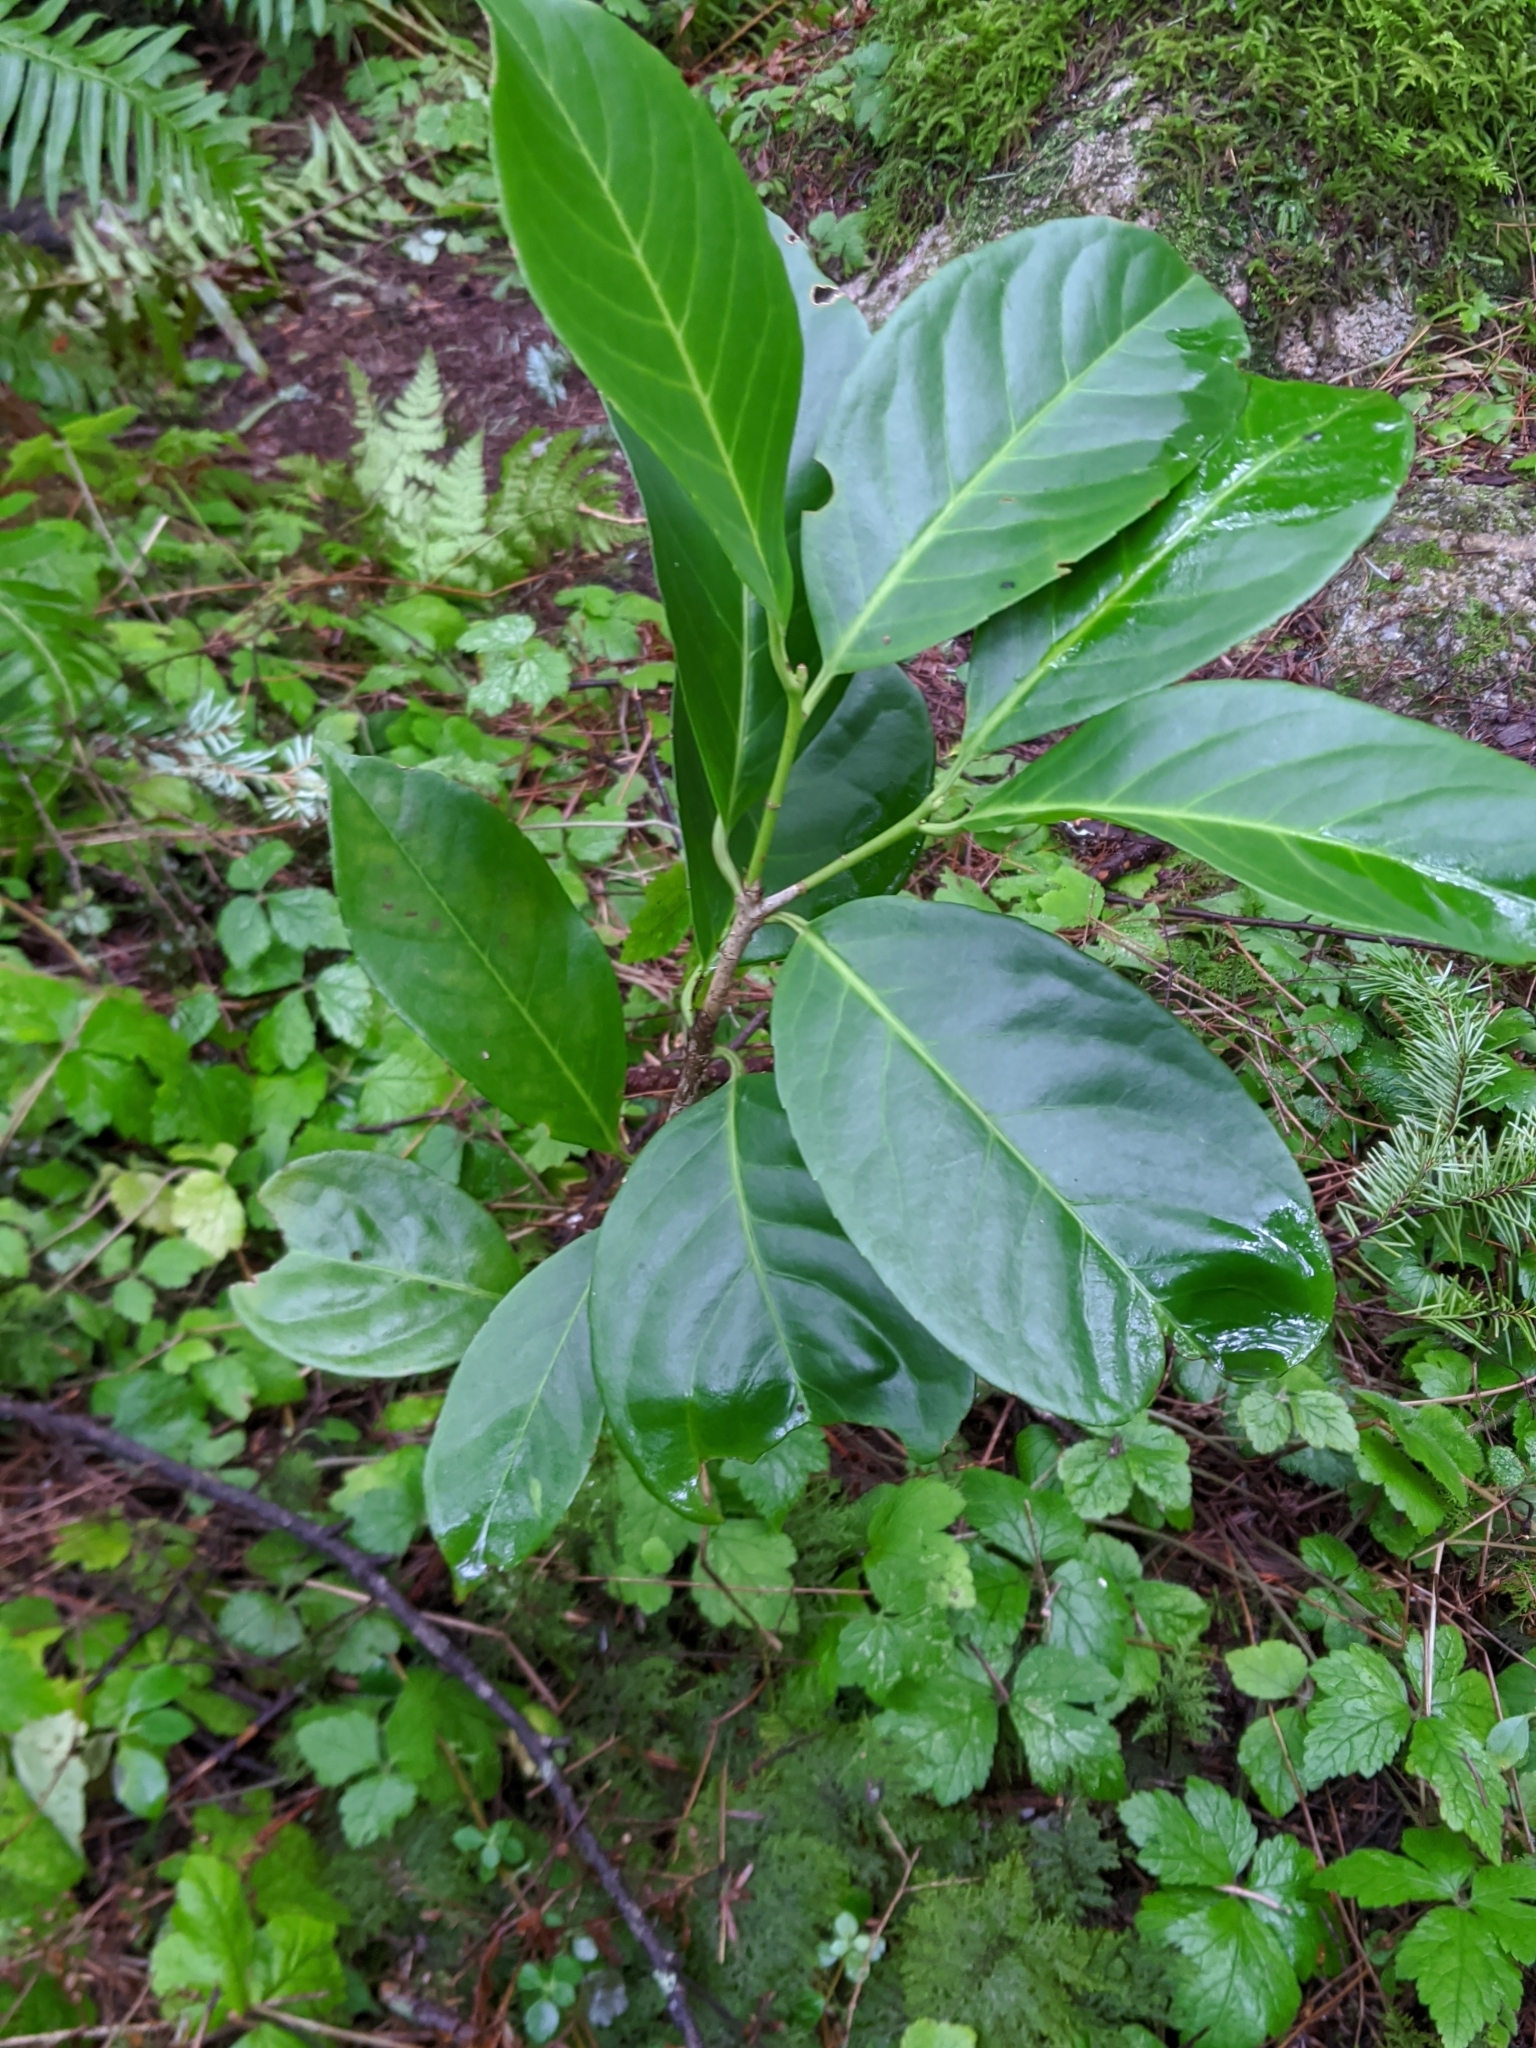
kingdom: Plantae
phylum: Tracheophyta
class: Magnoliopsida
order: Rosales
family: Rosaceae
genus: Prunus
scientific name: Prunus laurocerasus
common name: Cherry laurel
